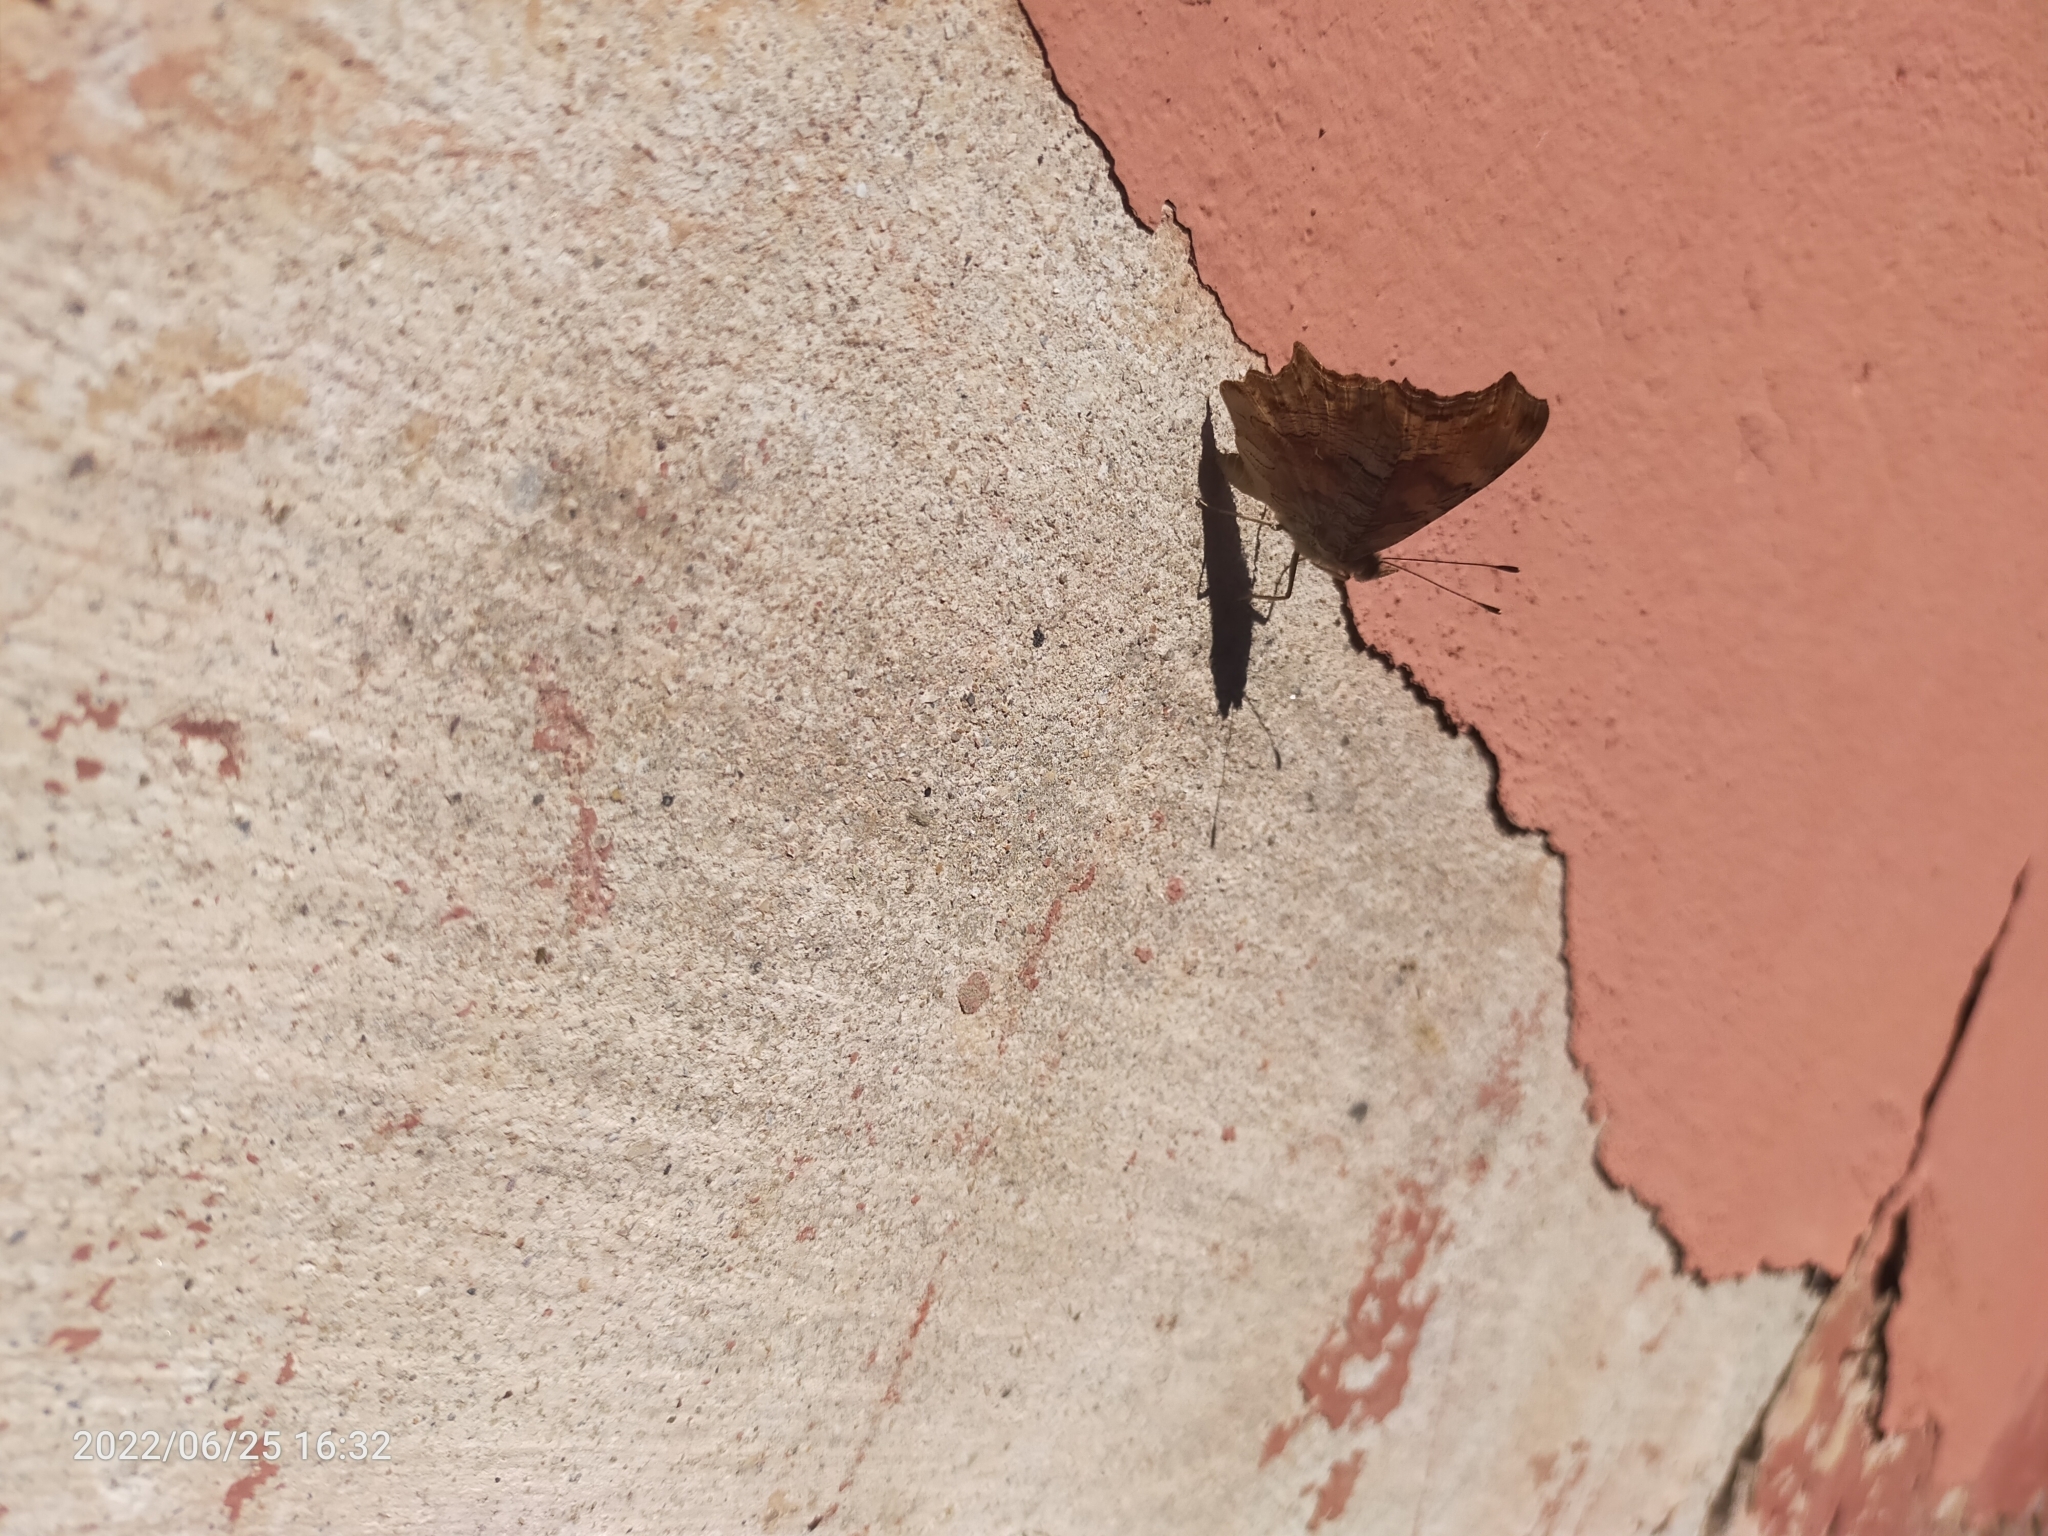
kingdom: Animalia
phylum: Arthropoda
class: Insecta
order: Lepidoptera
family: Nymphalidae
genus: Polygonia
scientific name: Polygonia egea
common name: Southern comma
